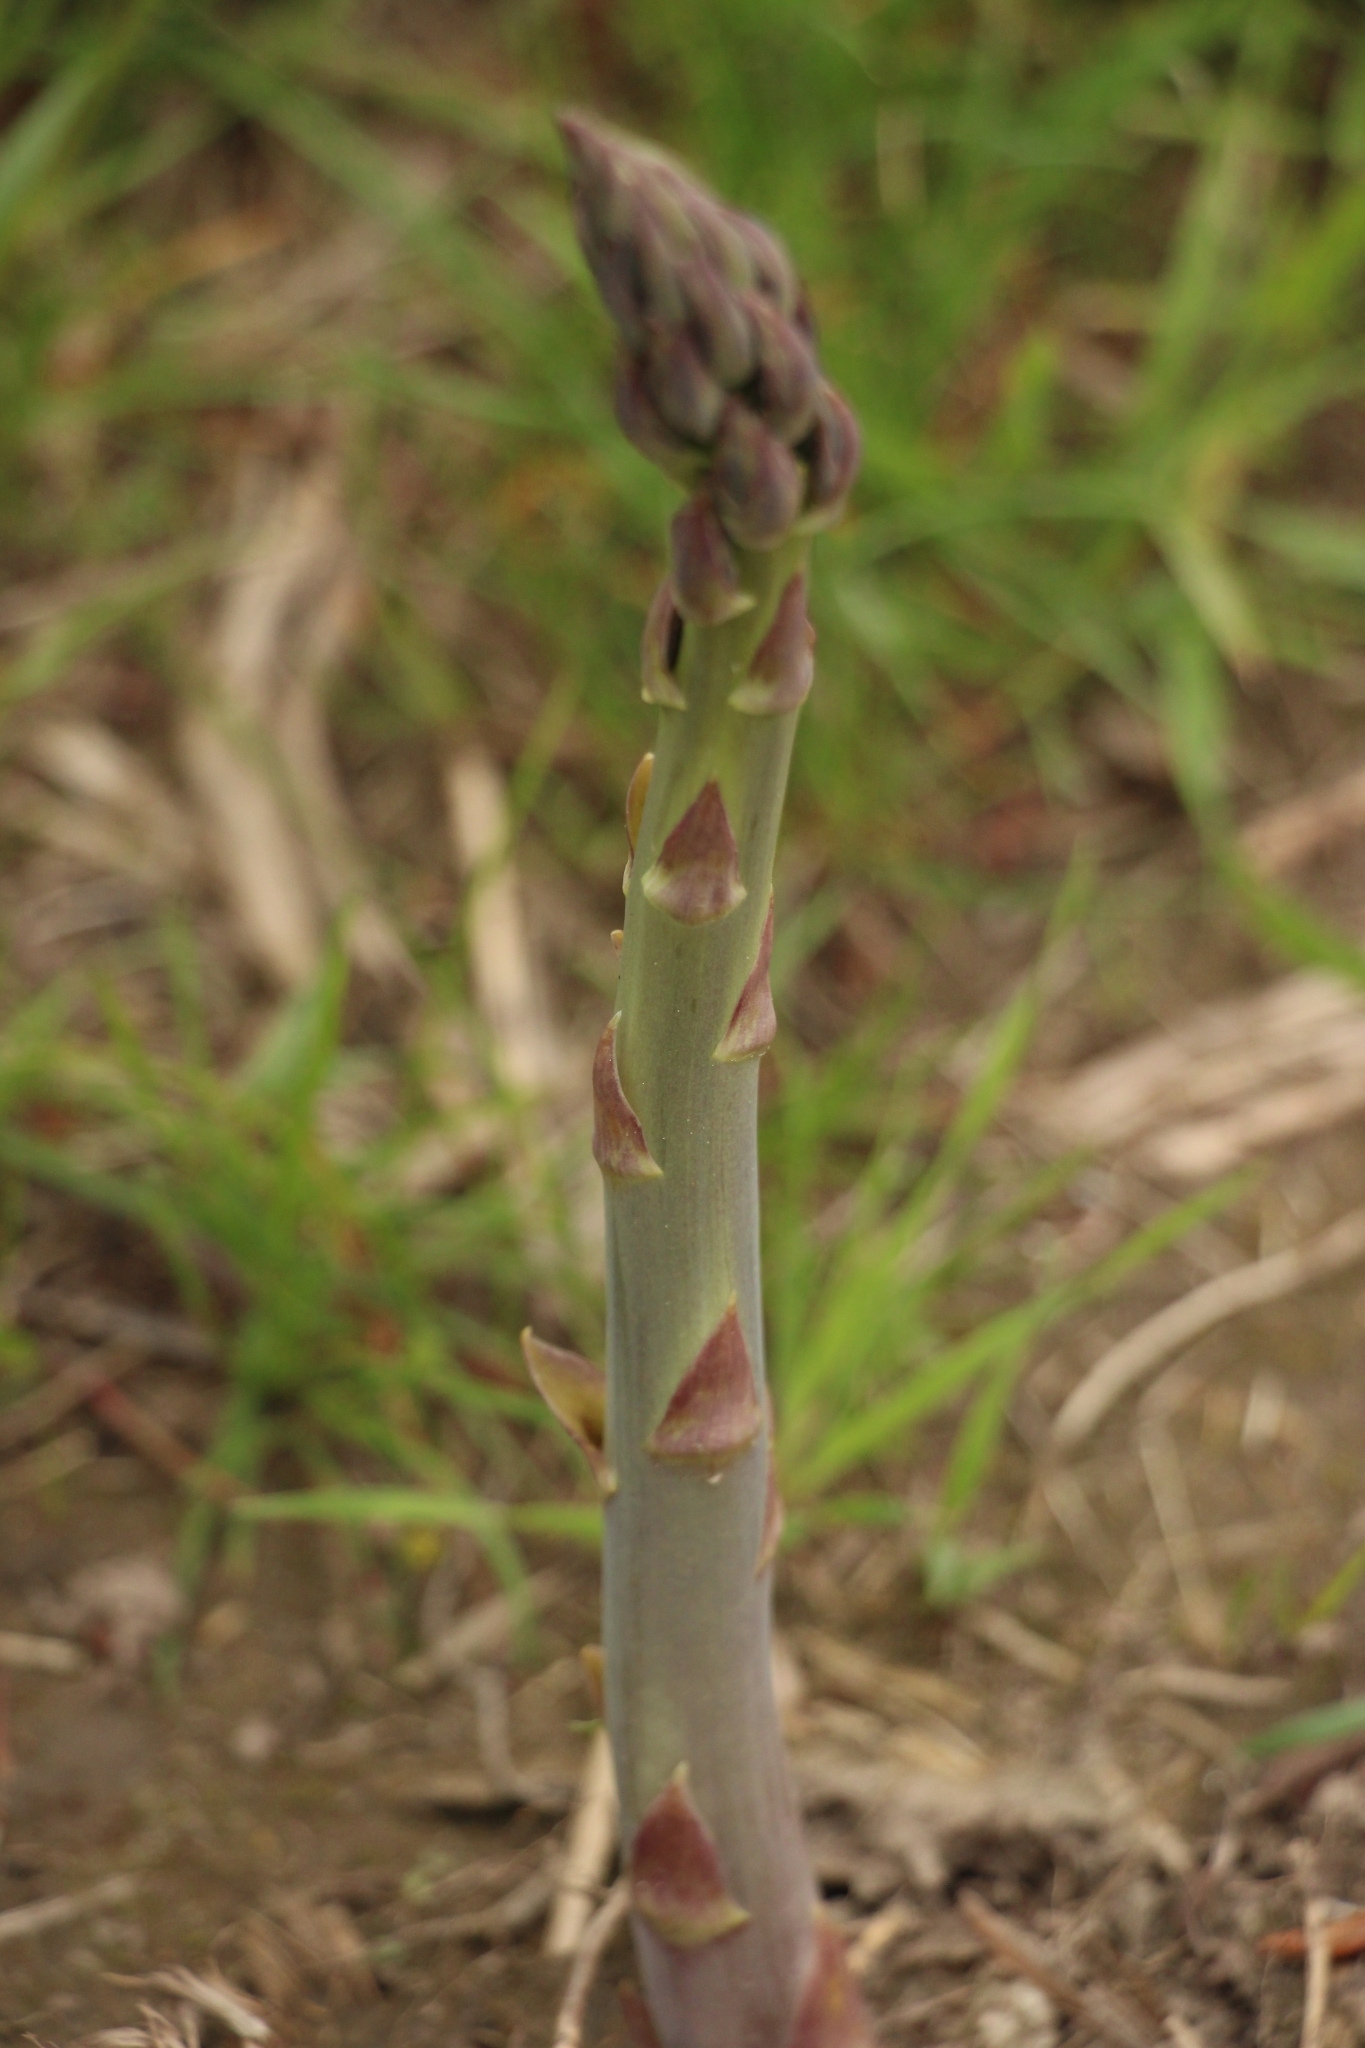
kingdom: Plantae
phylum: Tracheophyta
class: Liliopsida
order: Asparagales
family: Asparagaceae
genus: Asparagus
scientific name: Asparagus officinalis
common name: Garden asparagus
